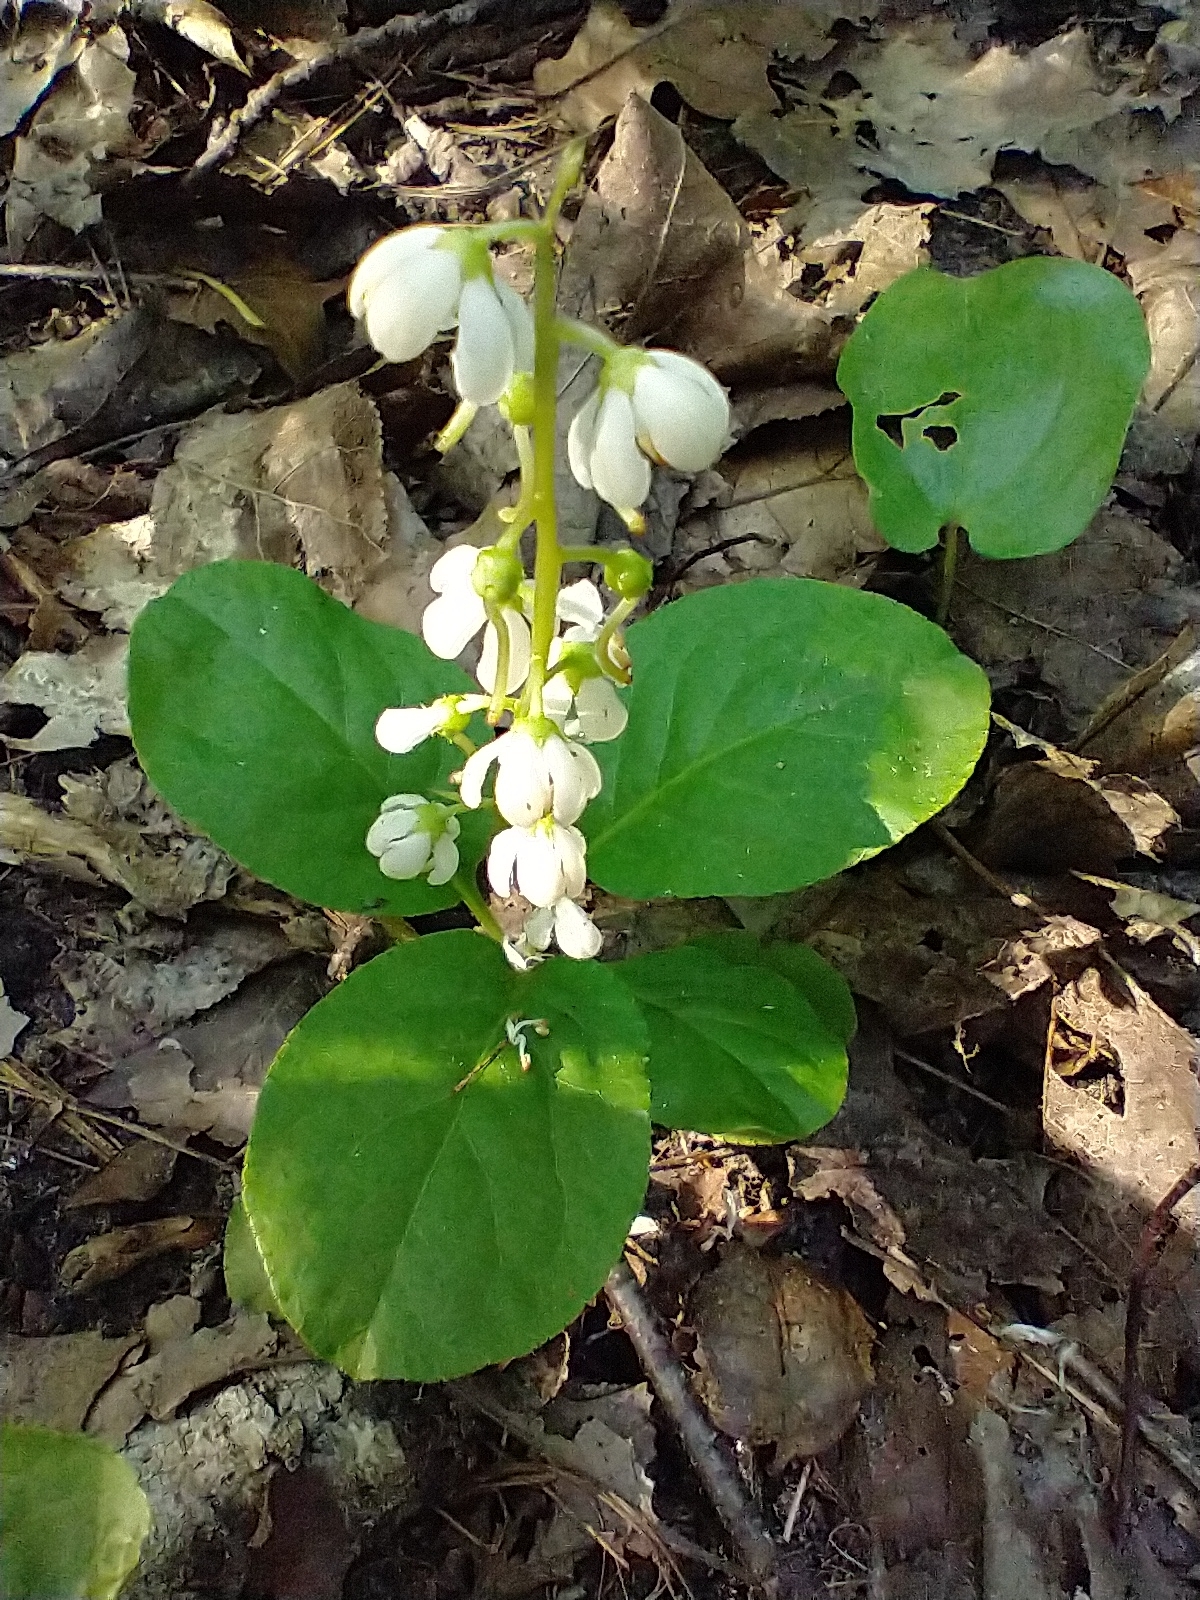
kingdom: Plantae
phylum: Tracheophyta
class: Magnoliopsida
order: Ericales
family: Ericaceae
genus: Pyrola
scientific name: Pyrola elliptica
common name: Shinleaf
